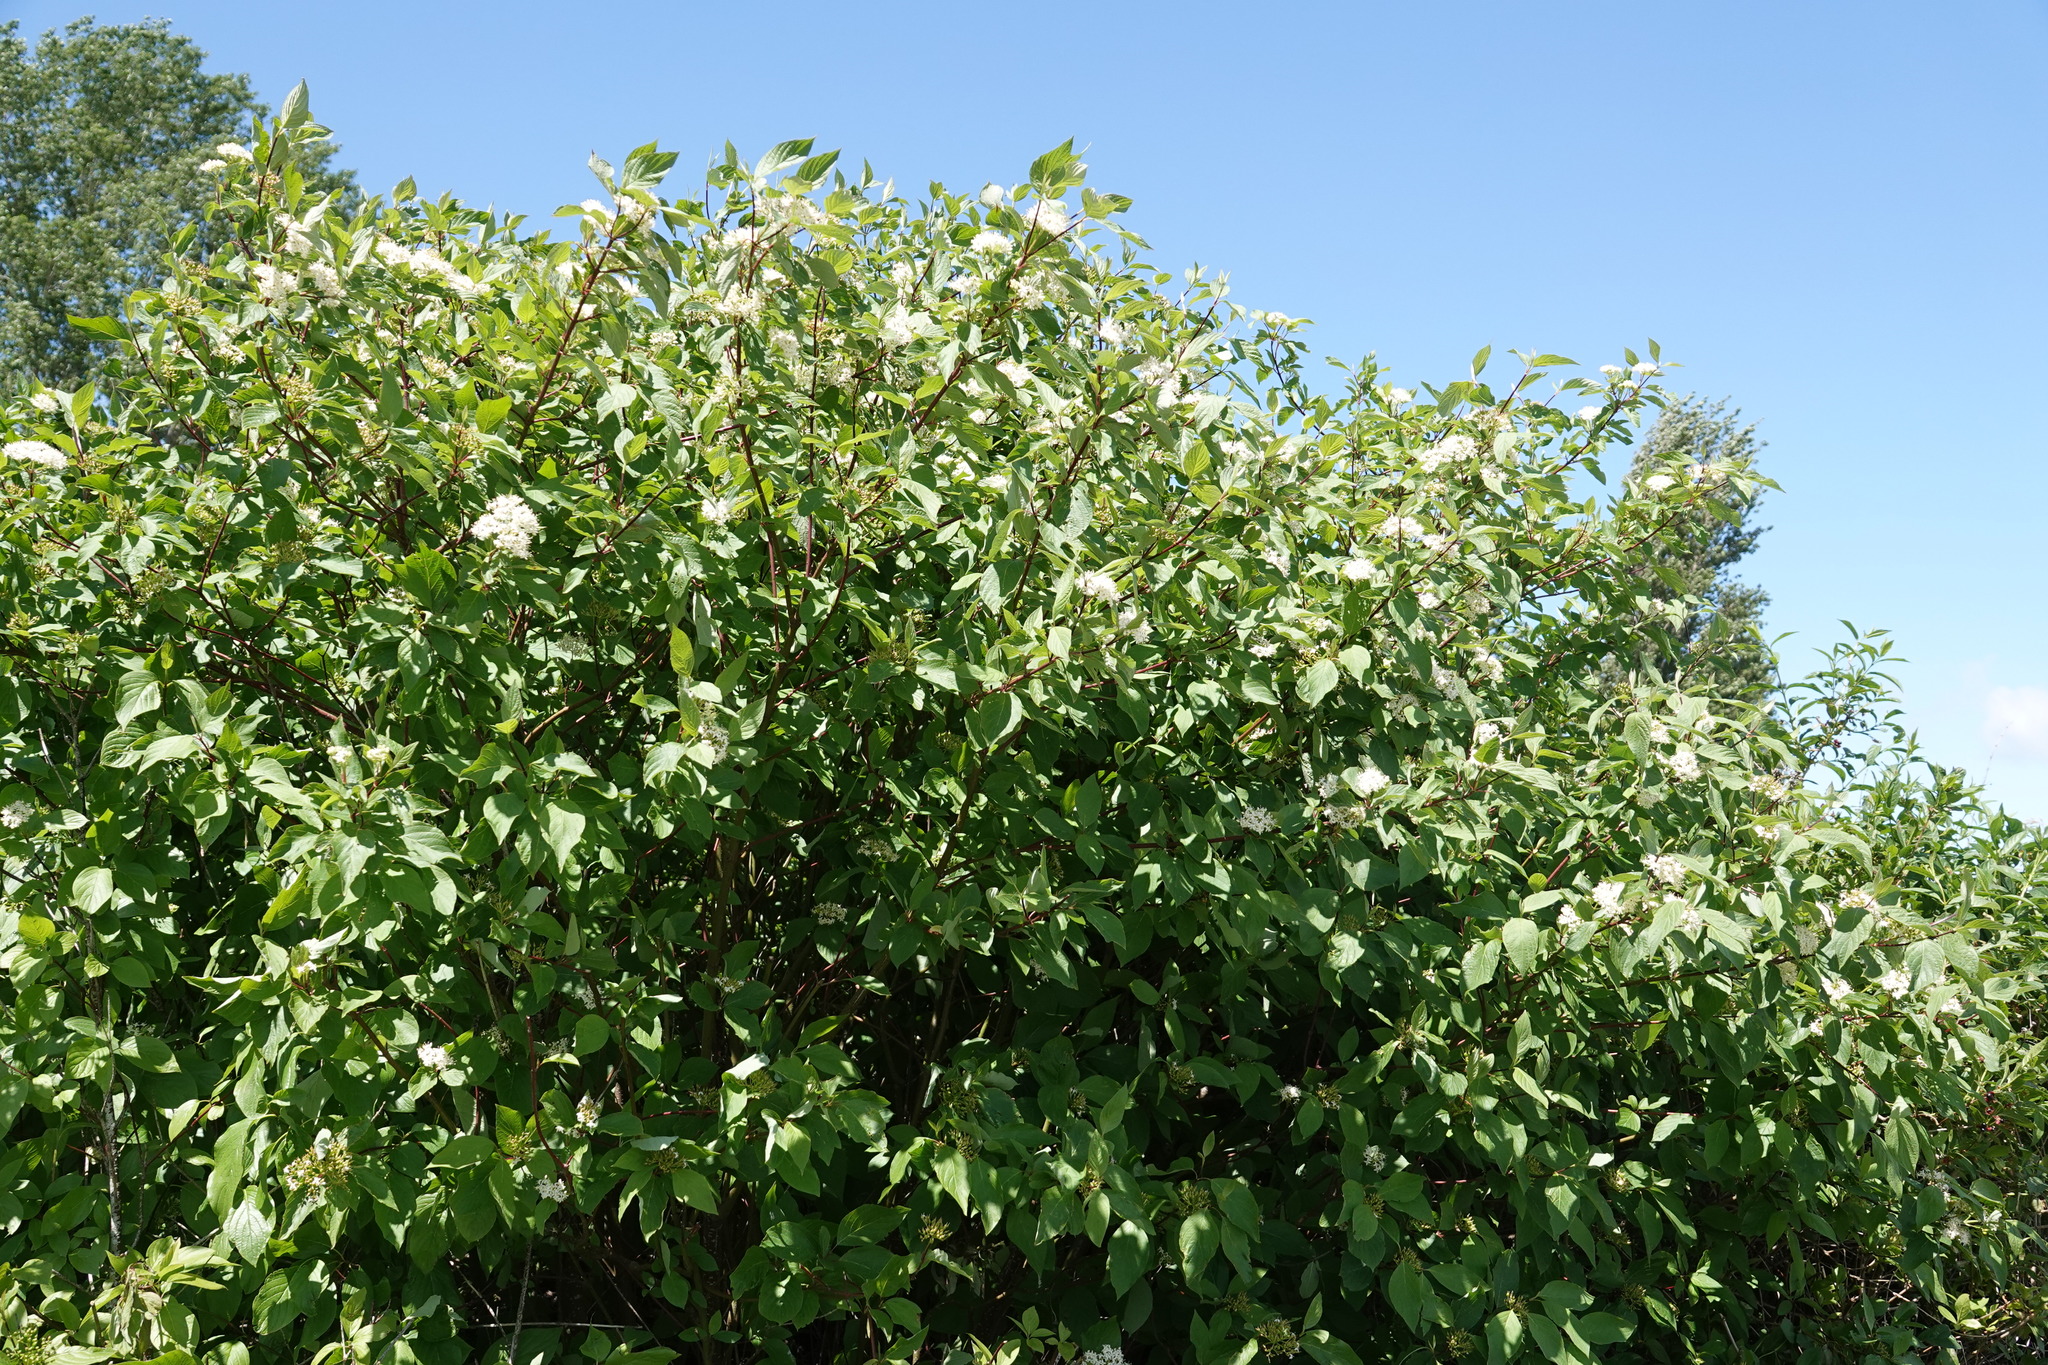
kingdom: Plantae
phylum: Tracheophyta
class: Magnoliopsida
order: Cornales
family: Cornaceae
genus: Cornus
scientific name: Cornus sericea
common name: Red-osier dogwood
